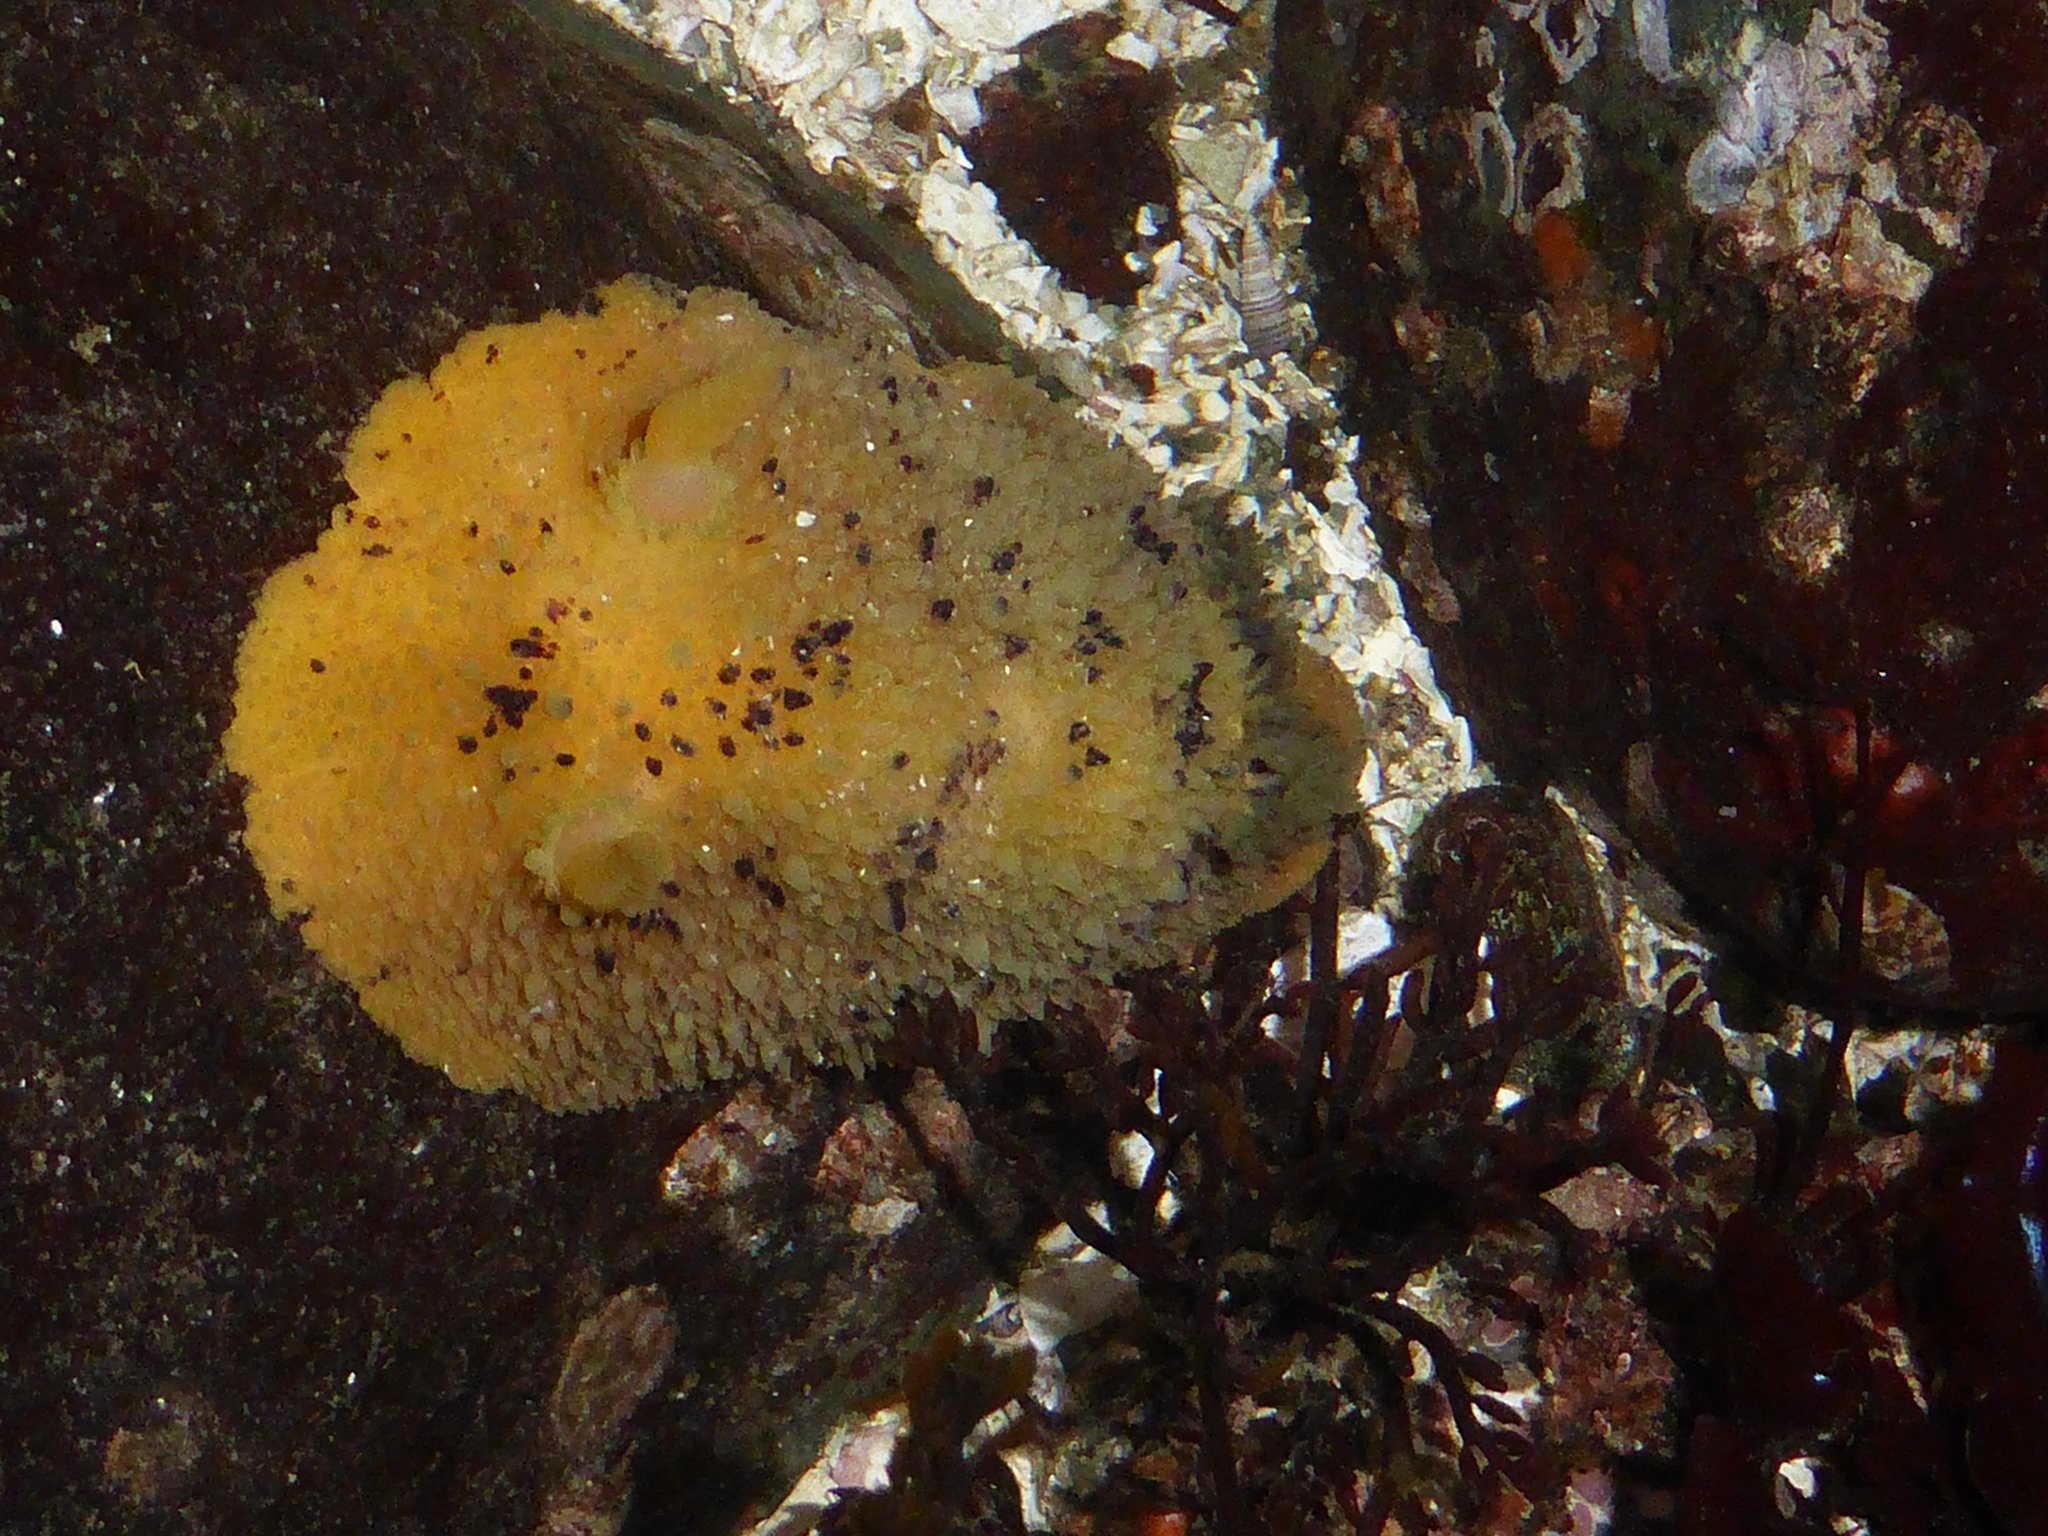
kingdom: Animalia
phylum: Mollusca
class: Gastropoda
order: Nudibranchia
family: Dorididae
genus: Doris
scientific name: Doris montereyensis
